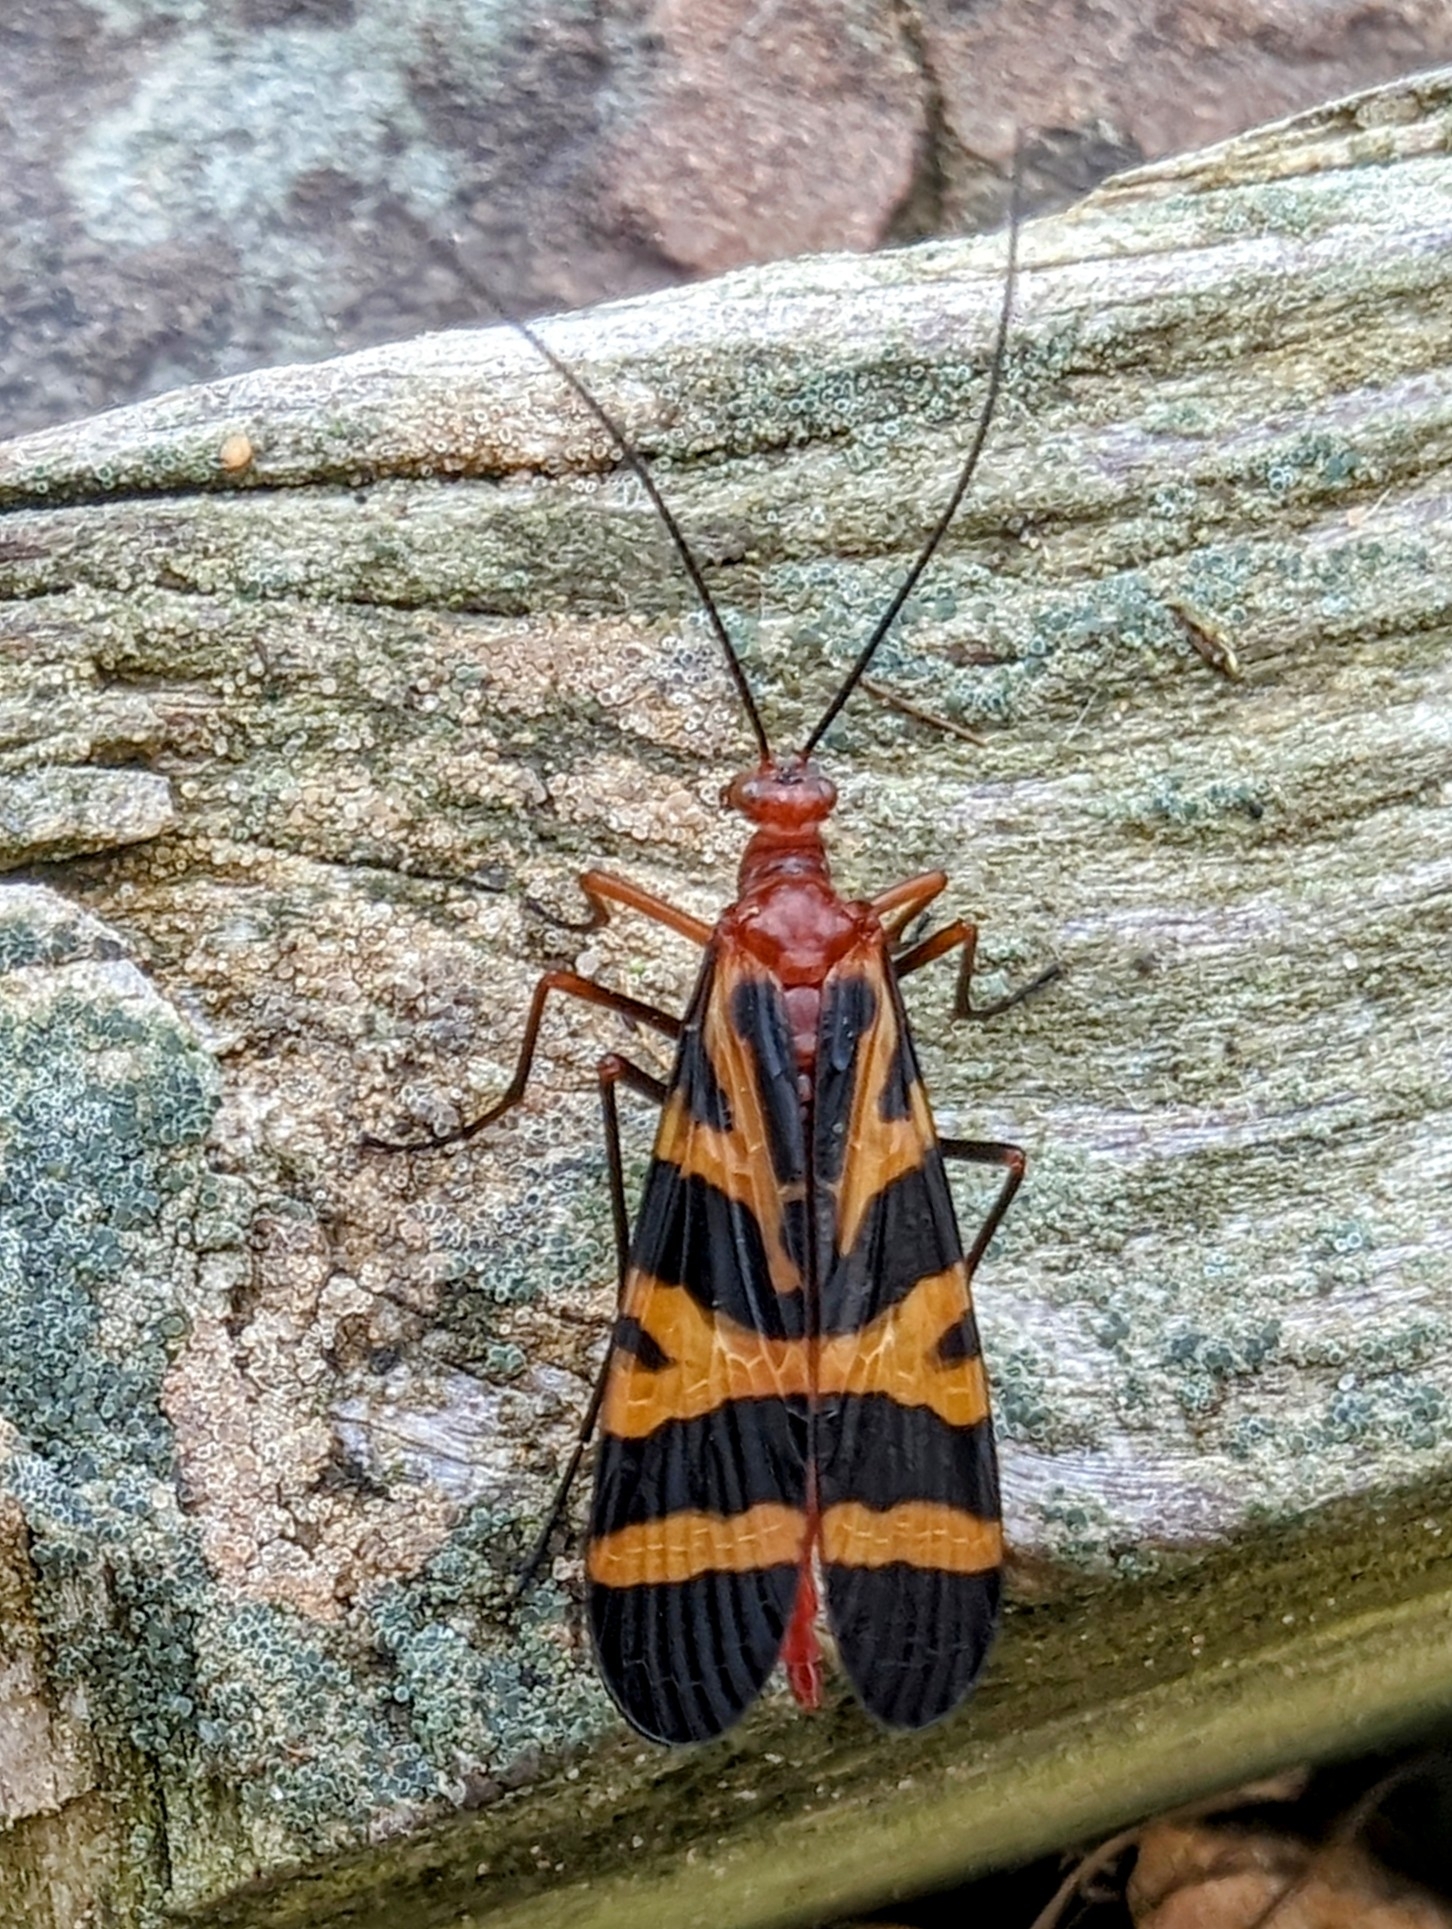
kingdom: Animalia
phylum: Arthropoda
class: Insecta
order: Mecoptera
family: Panorpidae
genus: Panorpa
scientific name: Panorpa nuptialis
